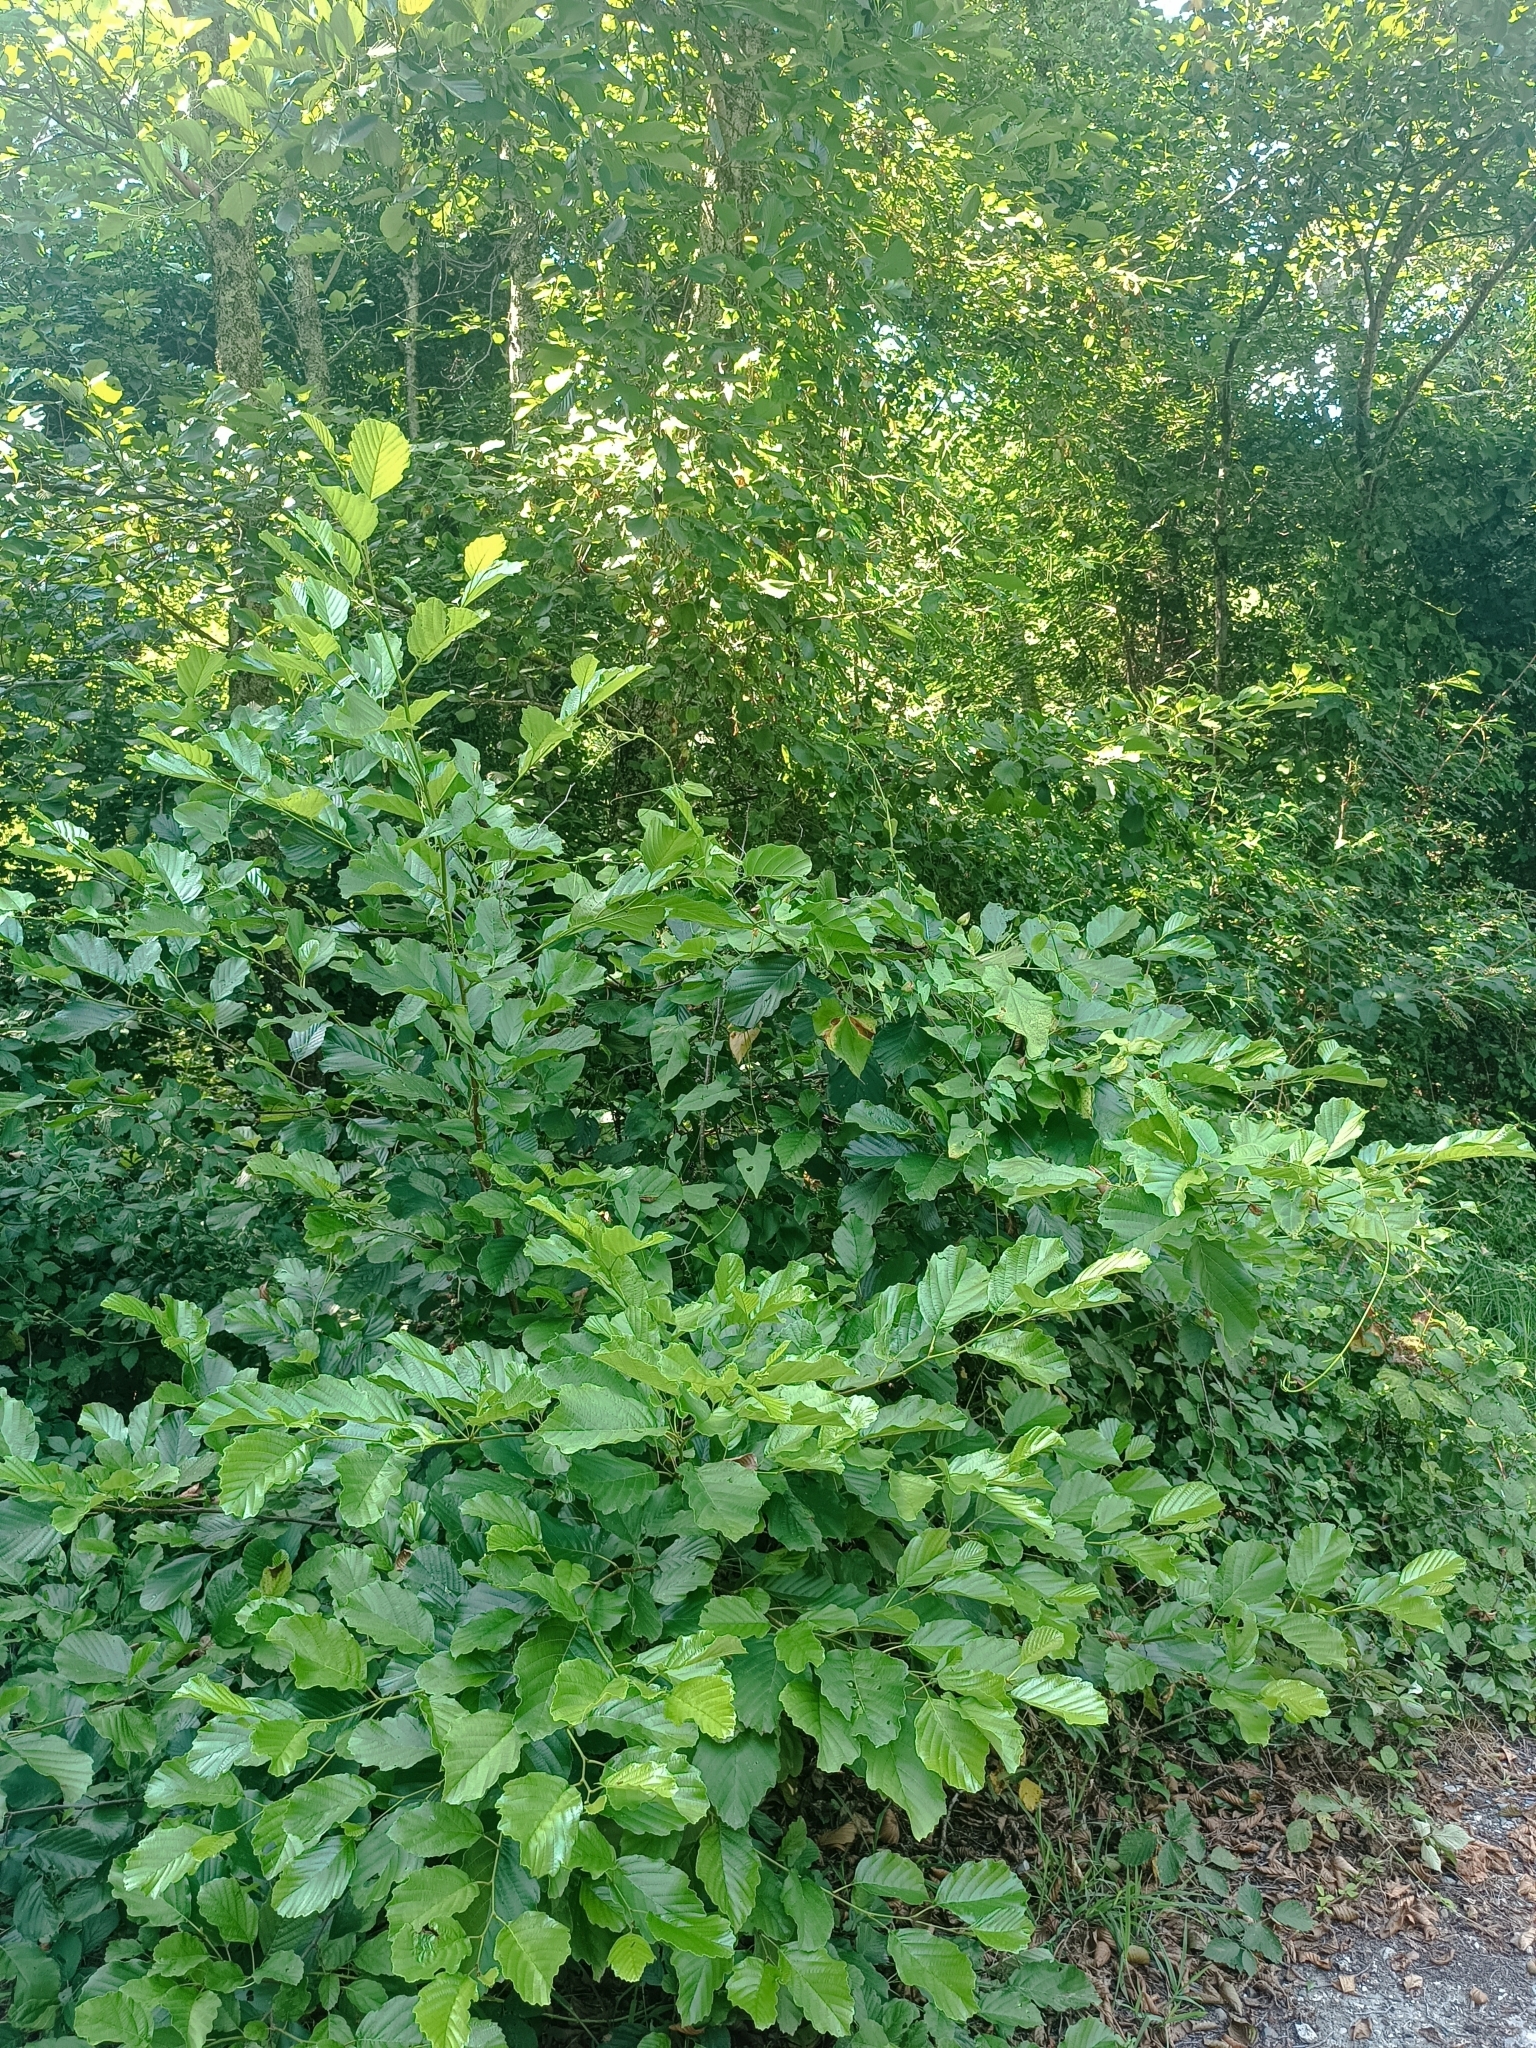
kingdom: Plantae
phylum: Tracheophyta
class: Magnoliopsida
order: Fagales
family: Betulaceae
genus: Alnus
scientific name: Alnus glutinosa
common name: Black alder
